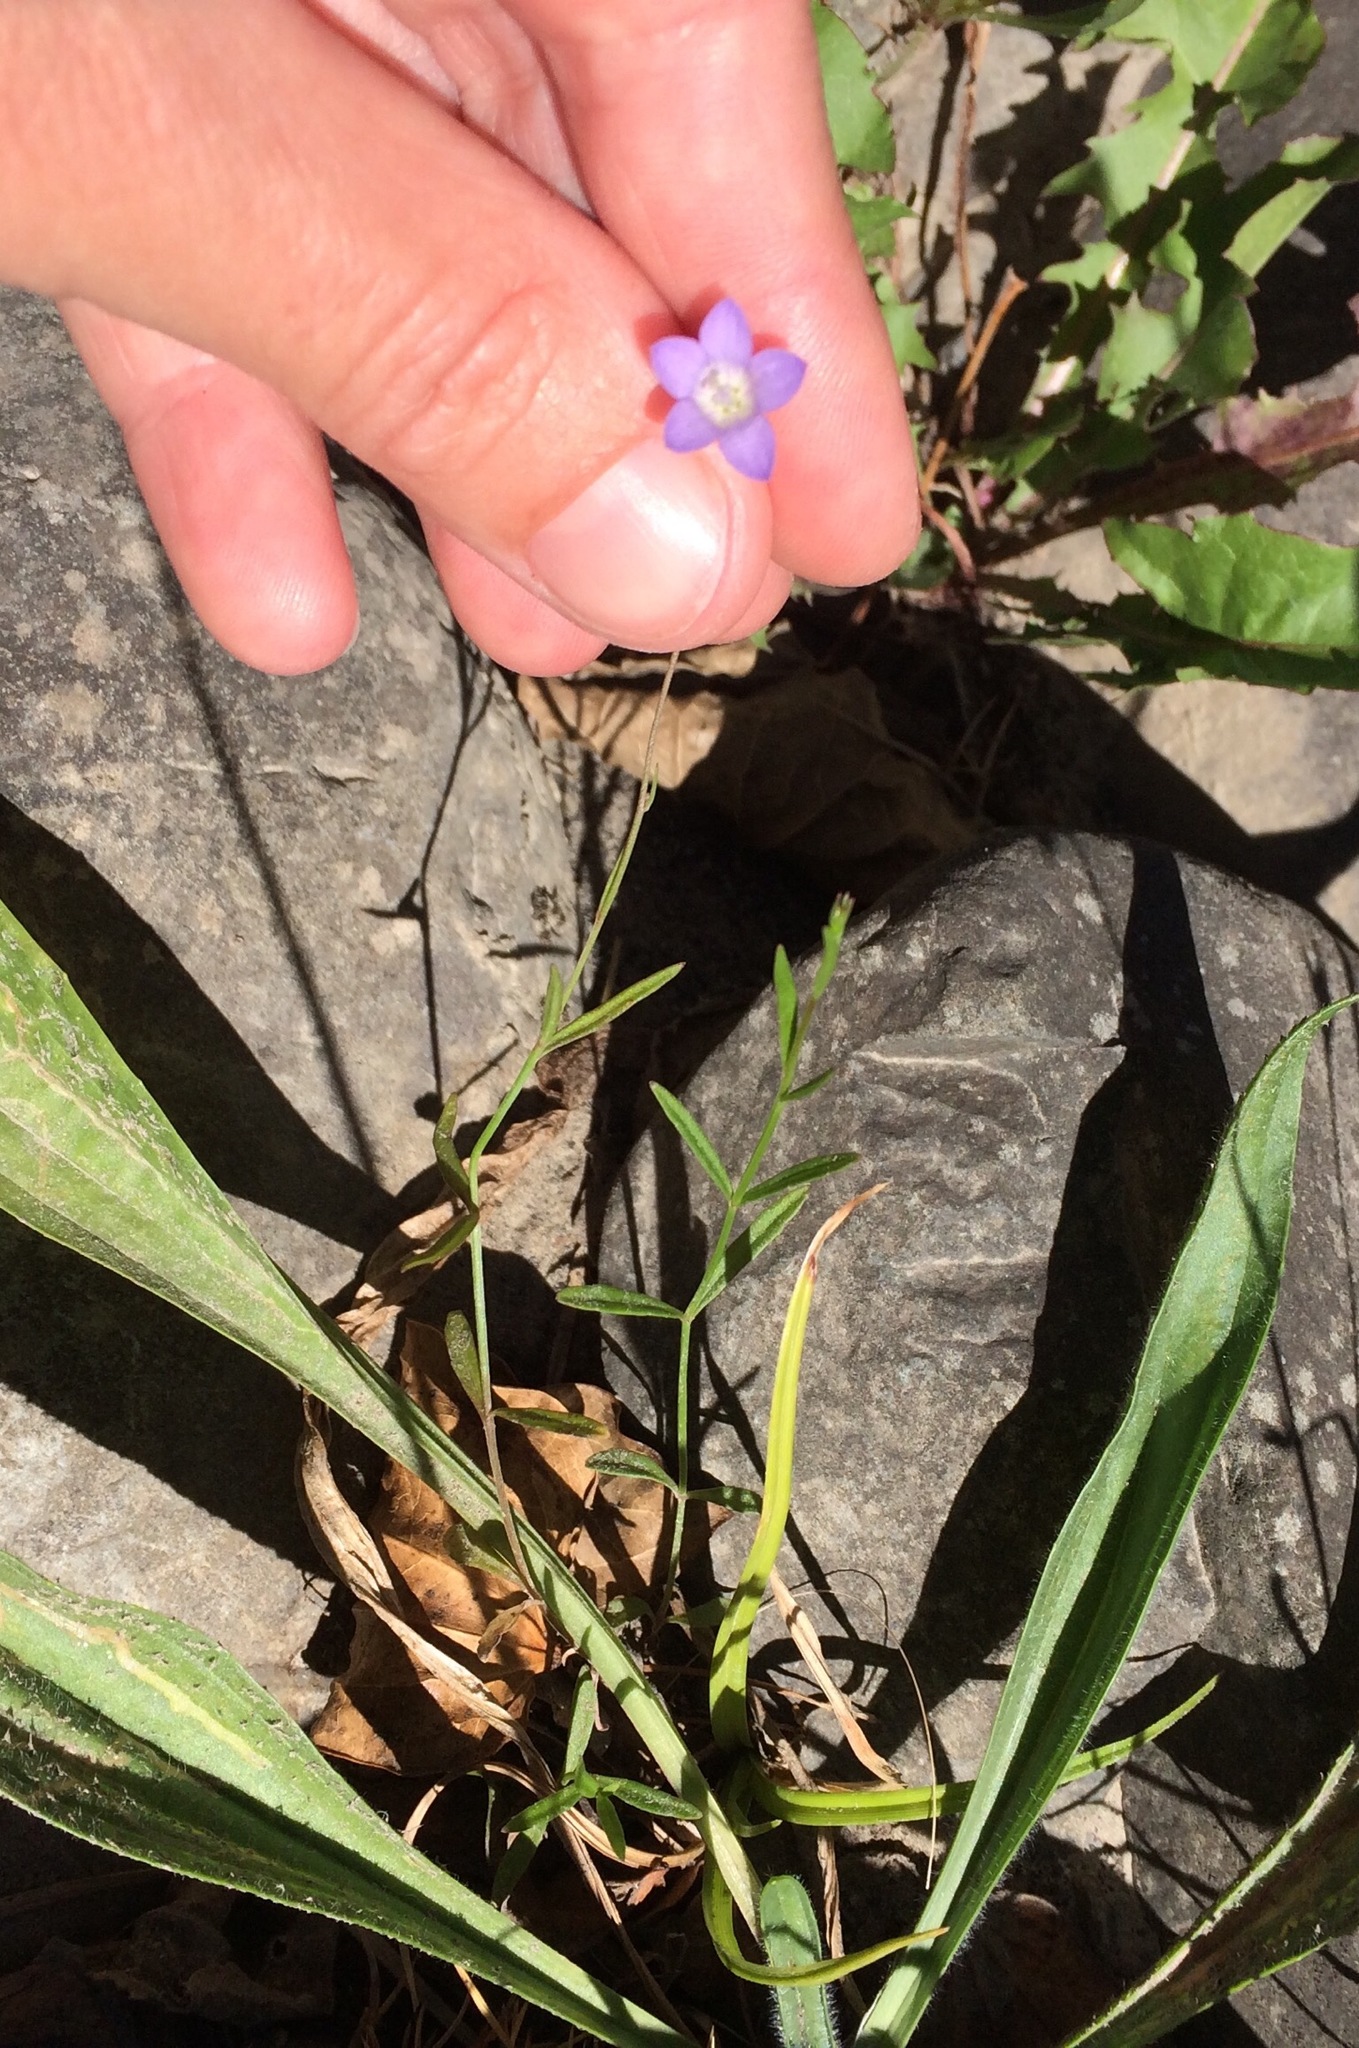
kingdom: Plantae
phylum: Tracheophyta
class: Magnoliopsida
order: Asterales
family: Campanulaceae
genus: Wahlenbergia
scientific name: Wahlenbergia violacea
